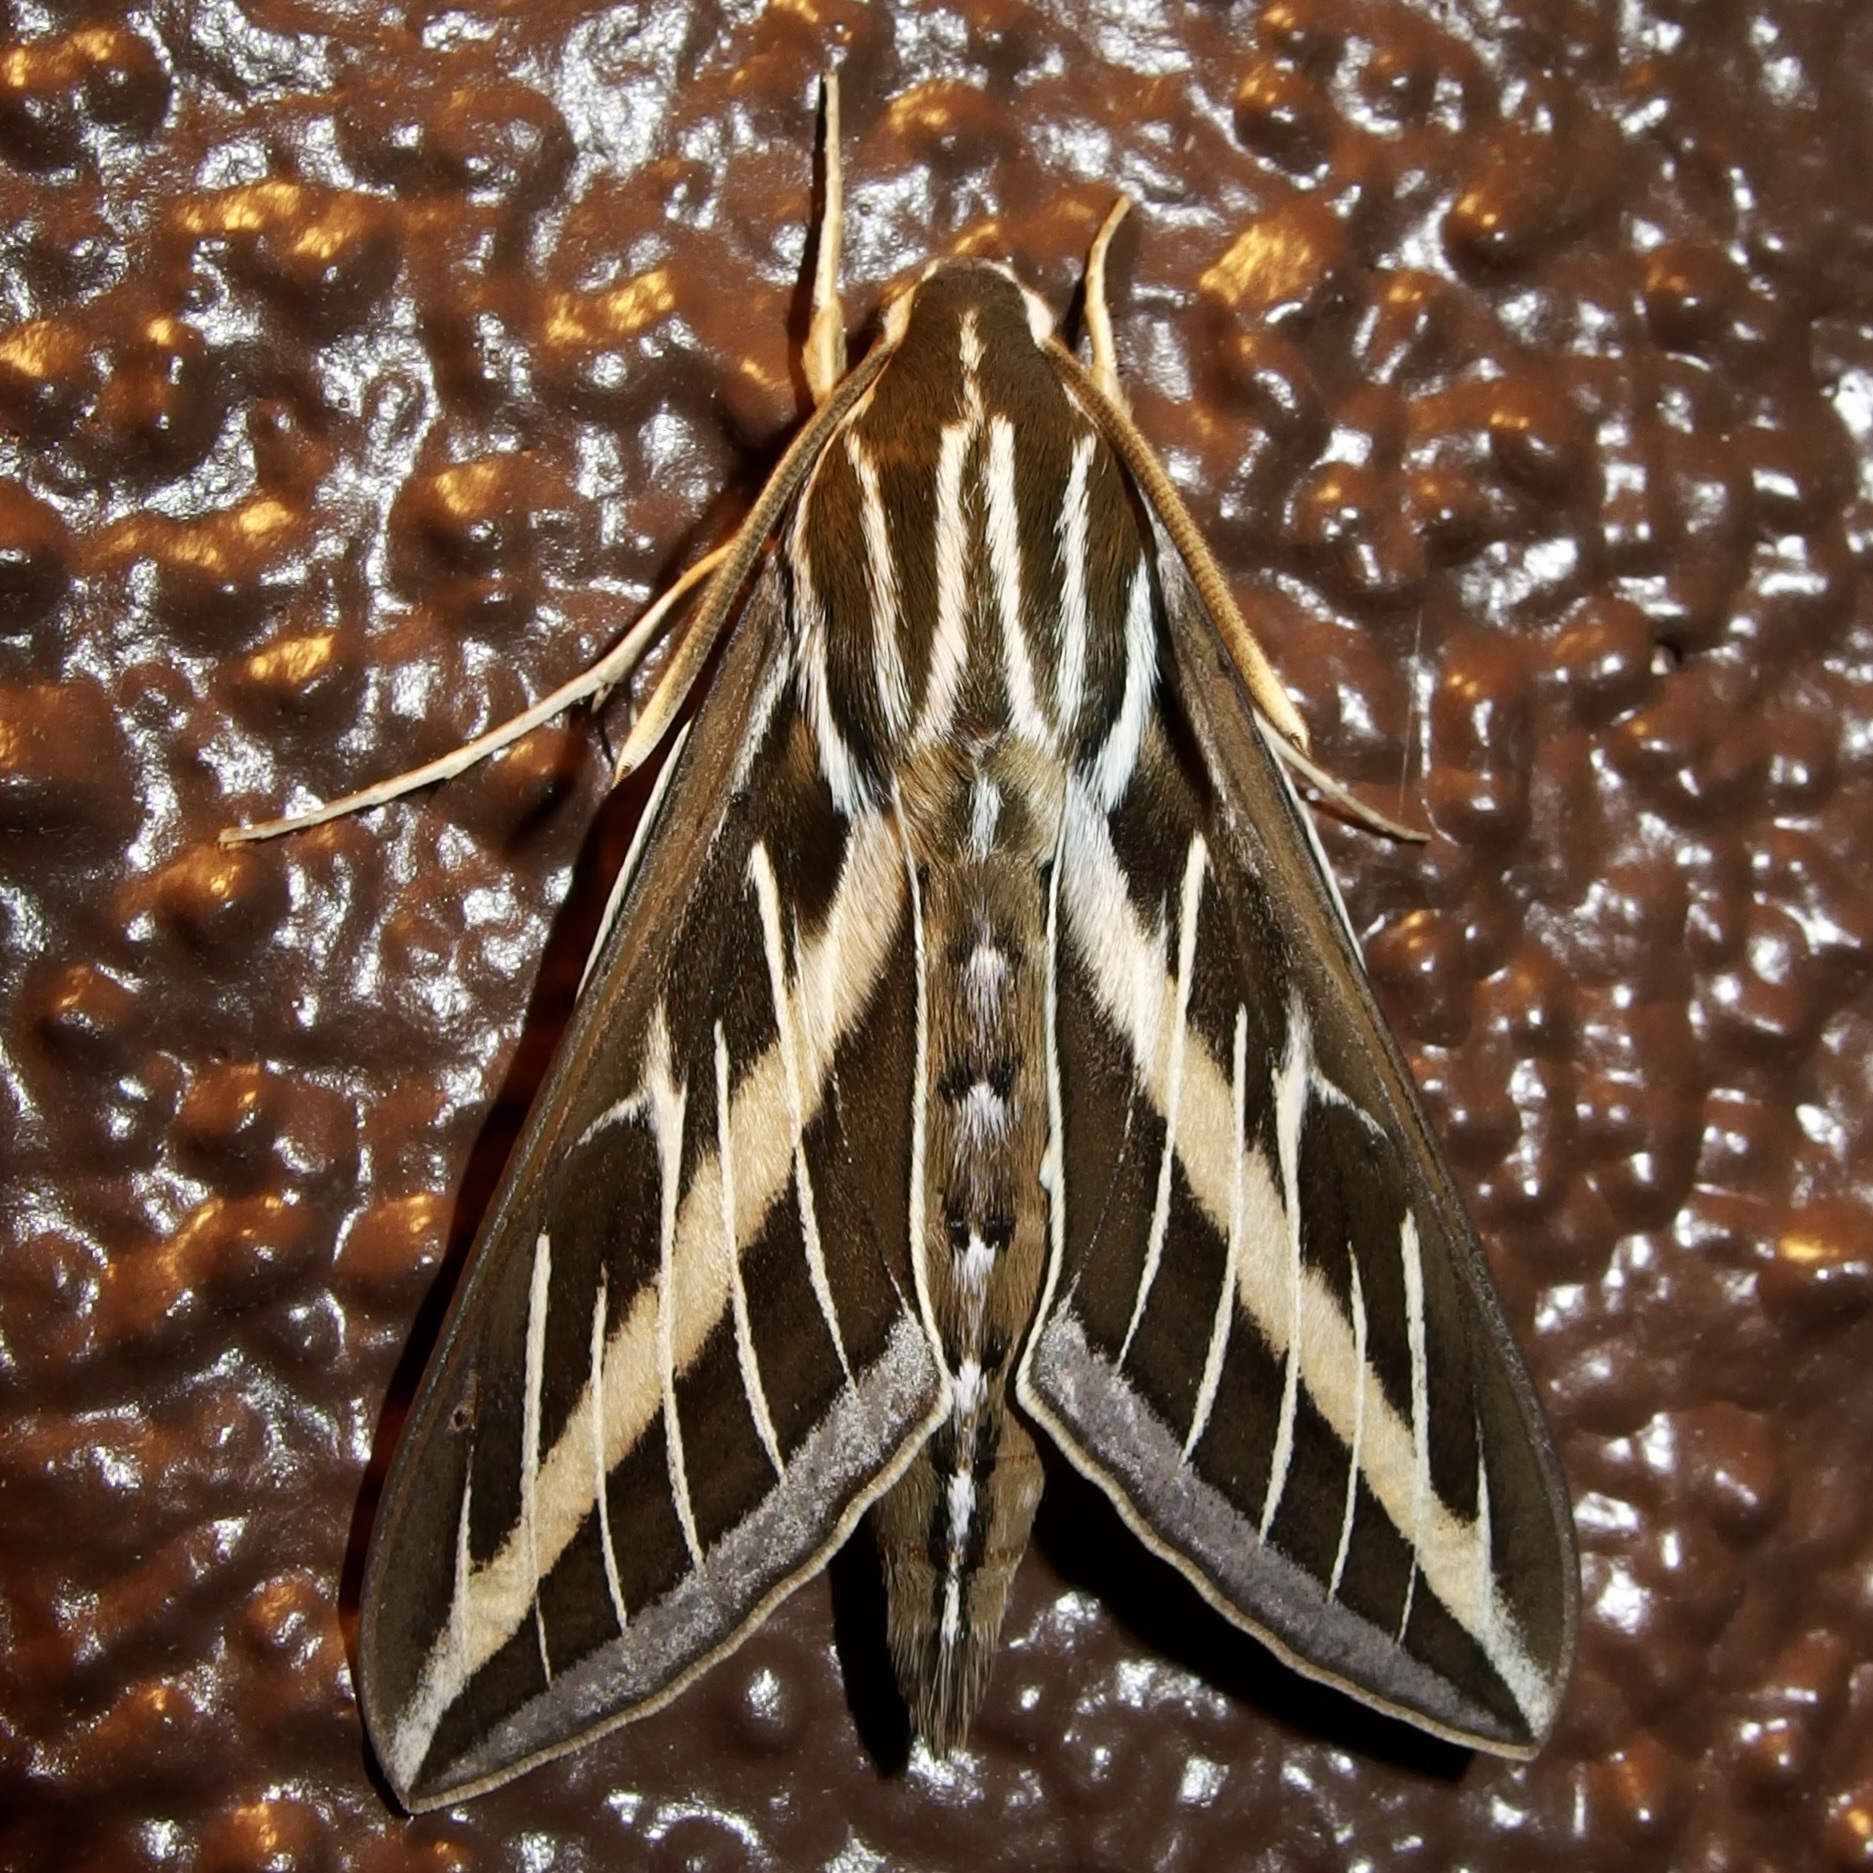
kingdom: Animalia
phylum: Arthropoda
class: Insecta
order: Lepidoptera
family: Sphingidae
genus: Hyles
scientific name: Hyles lineata
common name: White-lined sphinx
